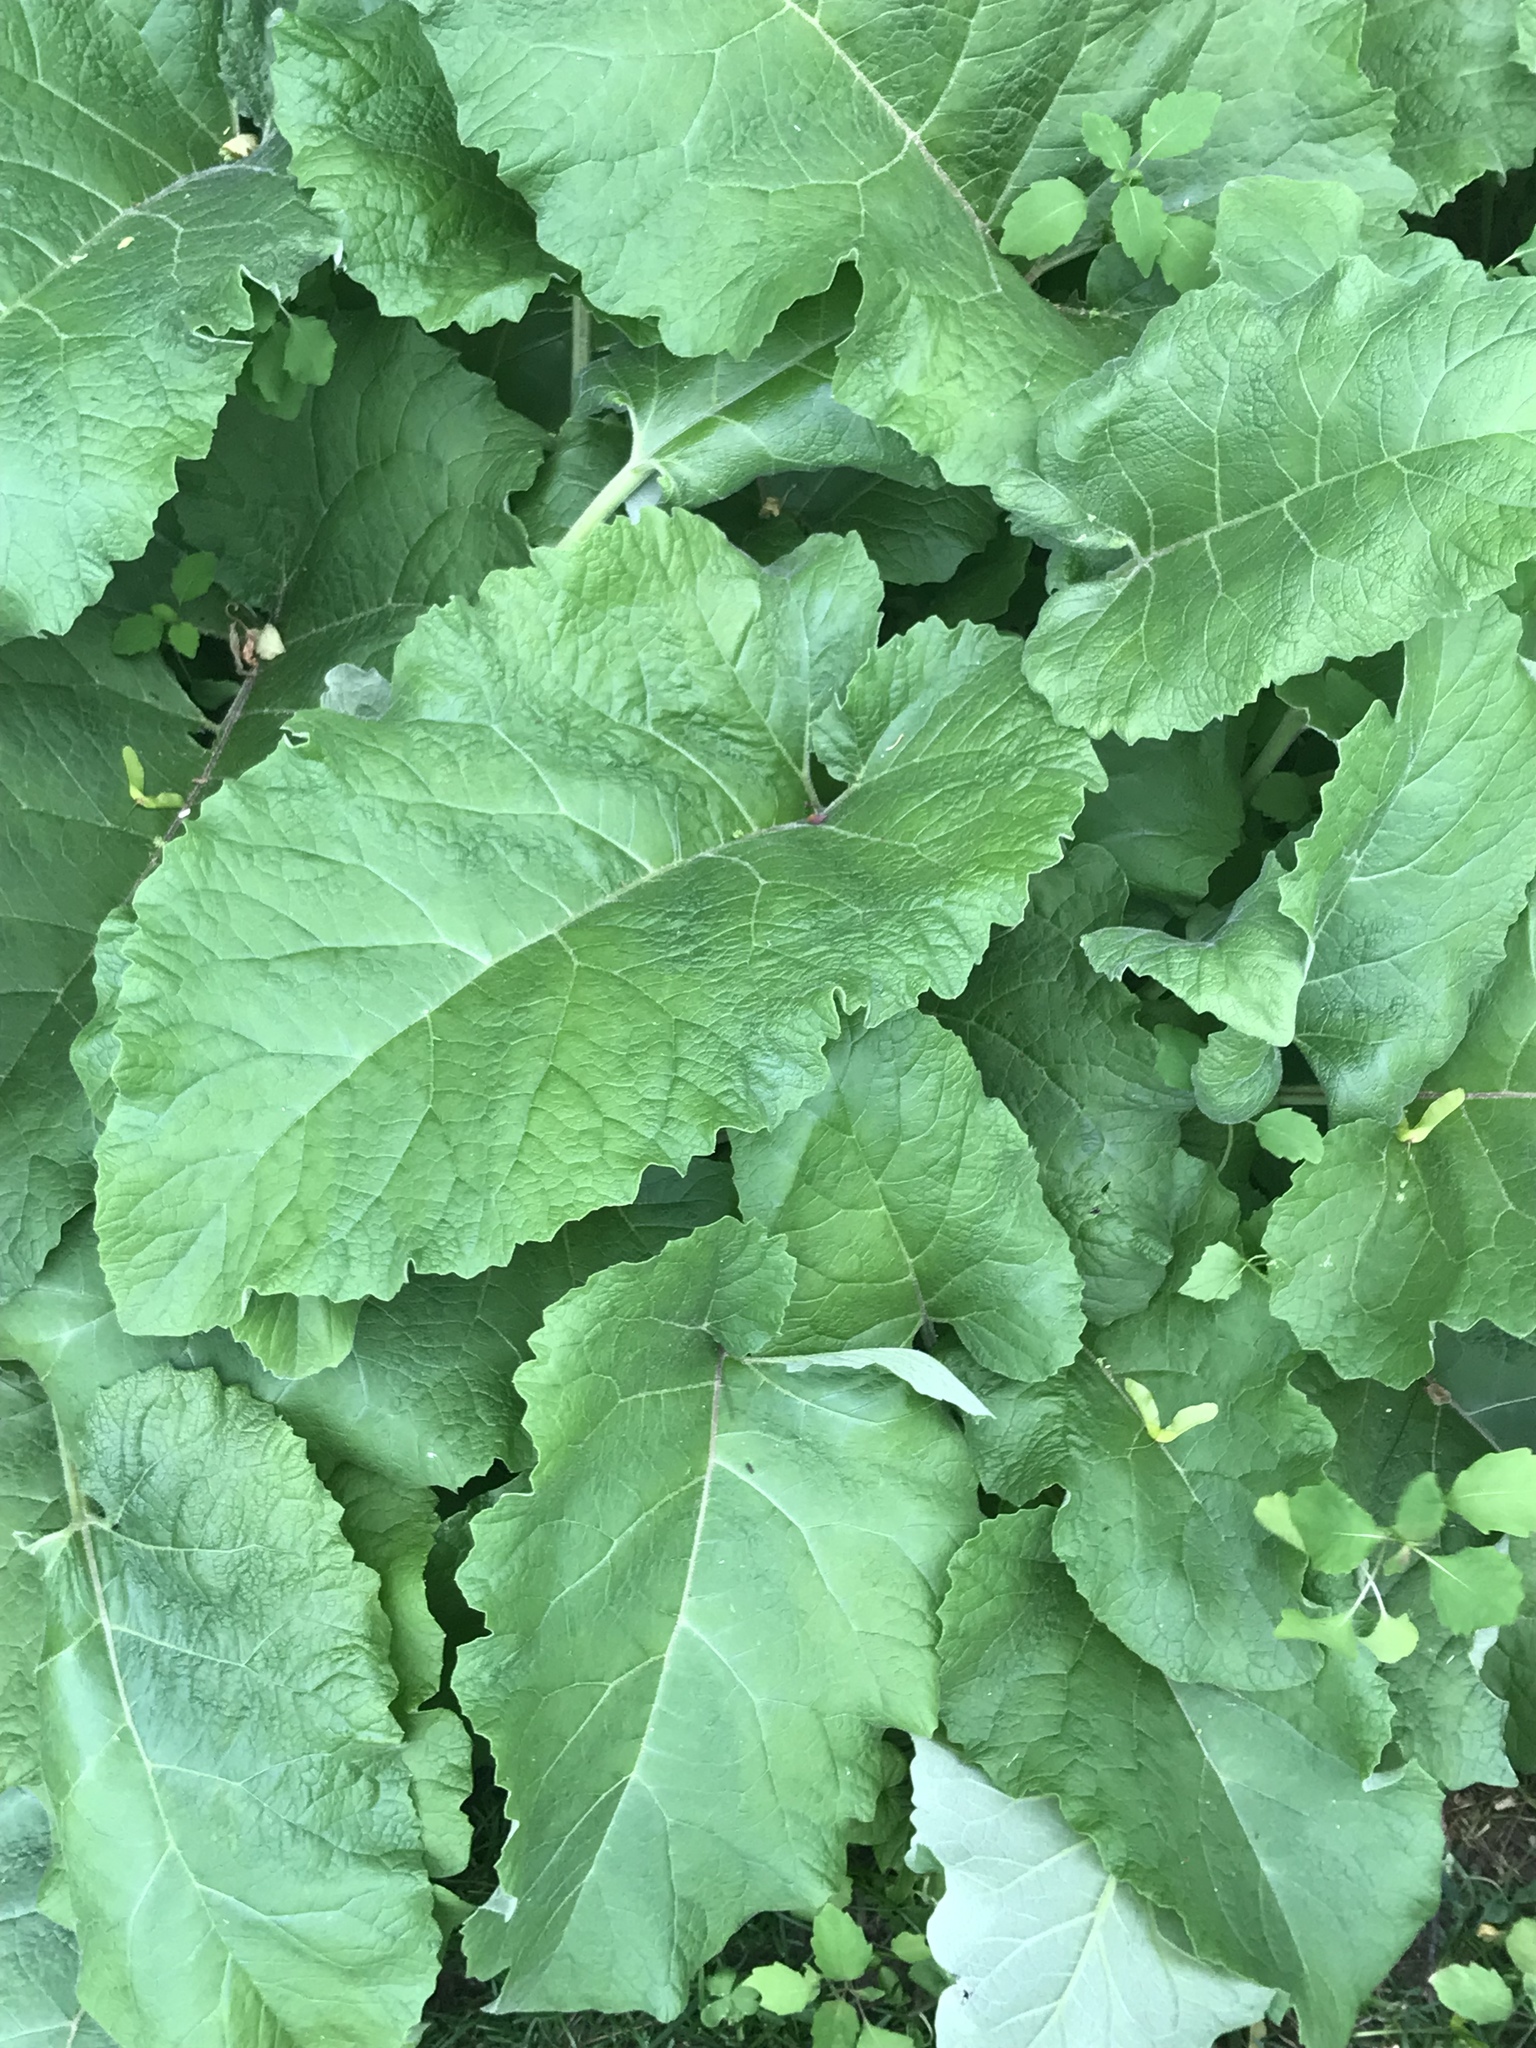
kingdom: Plantae
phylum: Tracheophyta
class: Magnoliopsida
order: Asterales
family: Asteraceae
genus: Arctium
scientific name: Arctium
